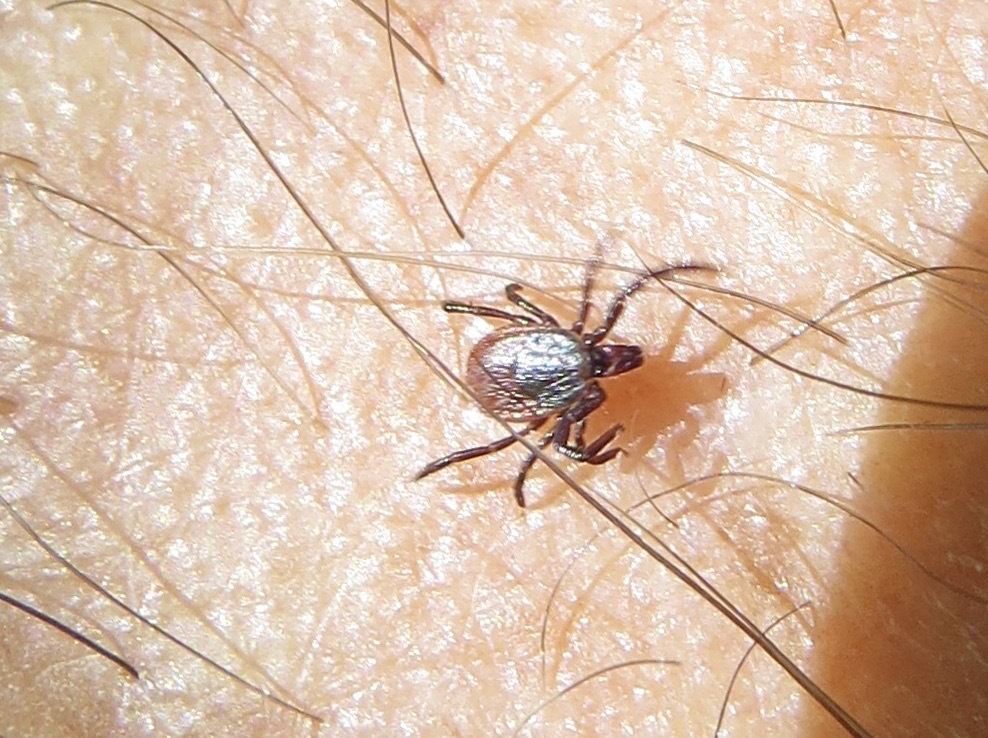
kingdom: Animalia
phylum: Arthropoda
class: Arachnida
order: Ixodida
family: Ixodidae
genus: Ixodes
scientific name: Ixodes pacificus
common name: California black-legged tick
